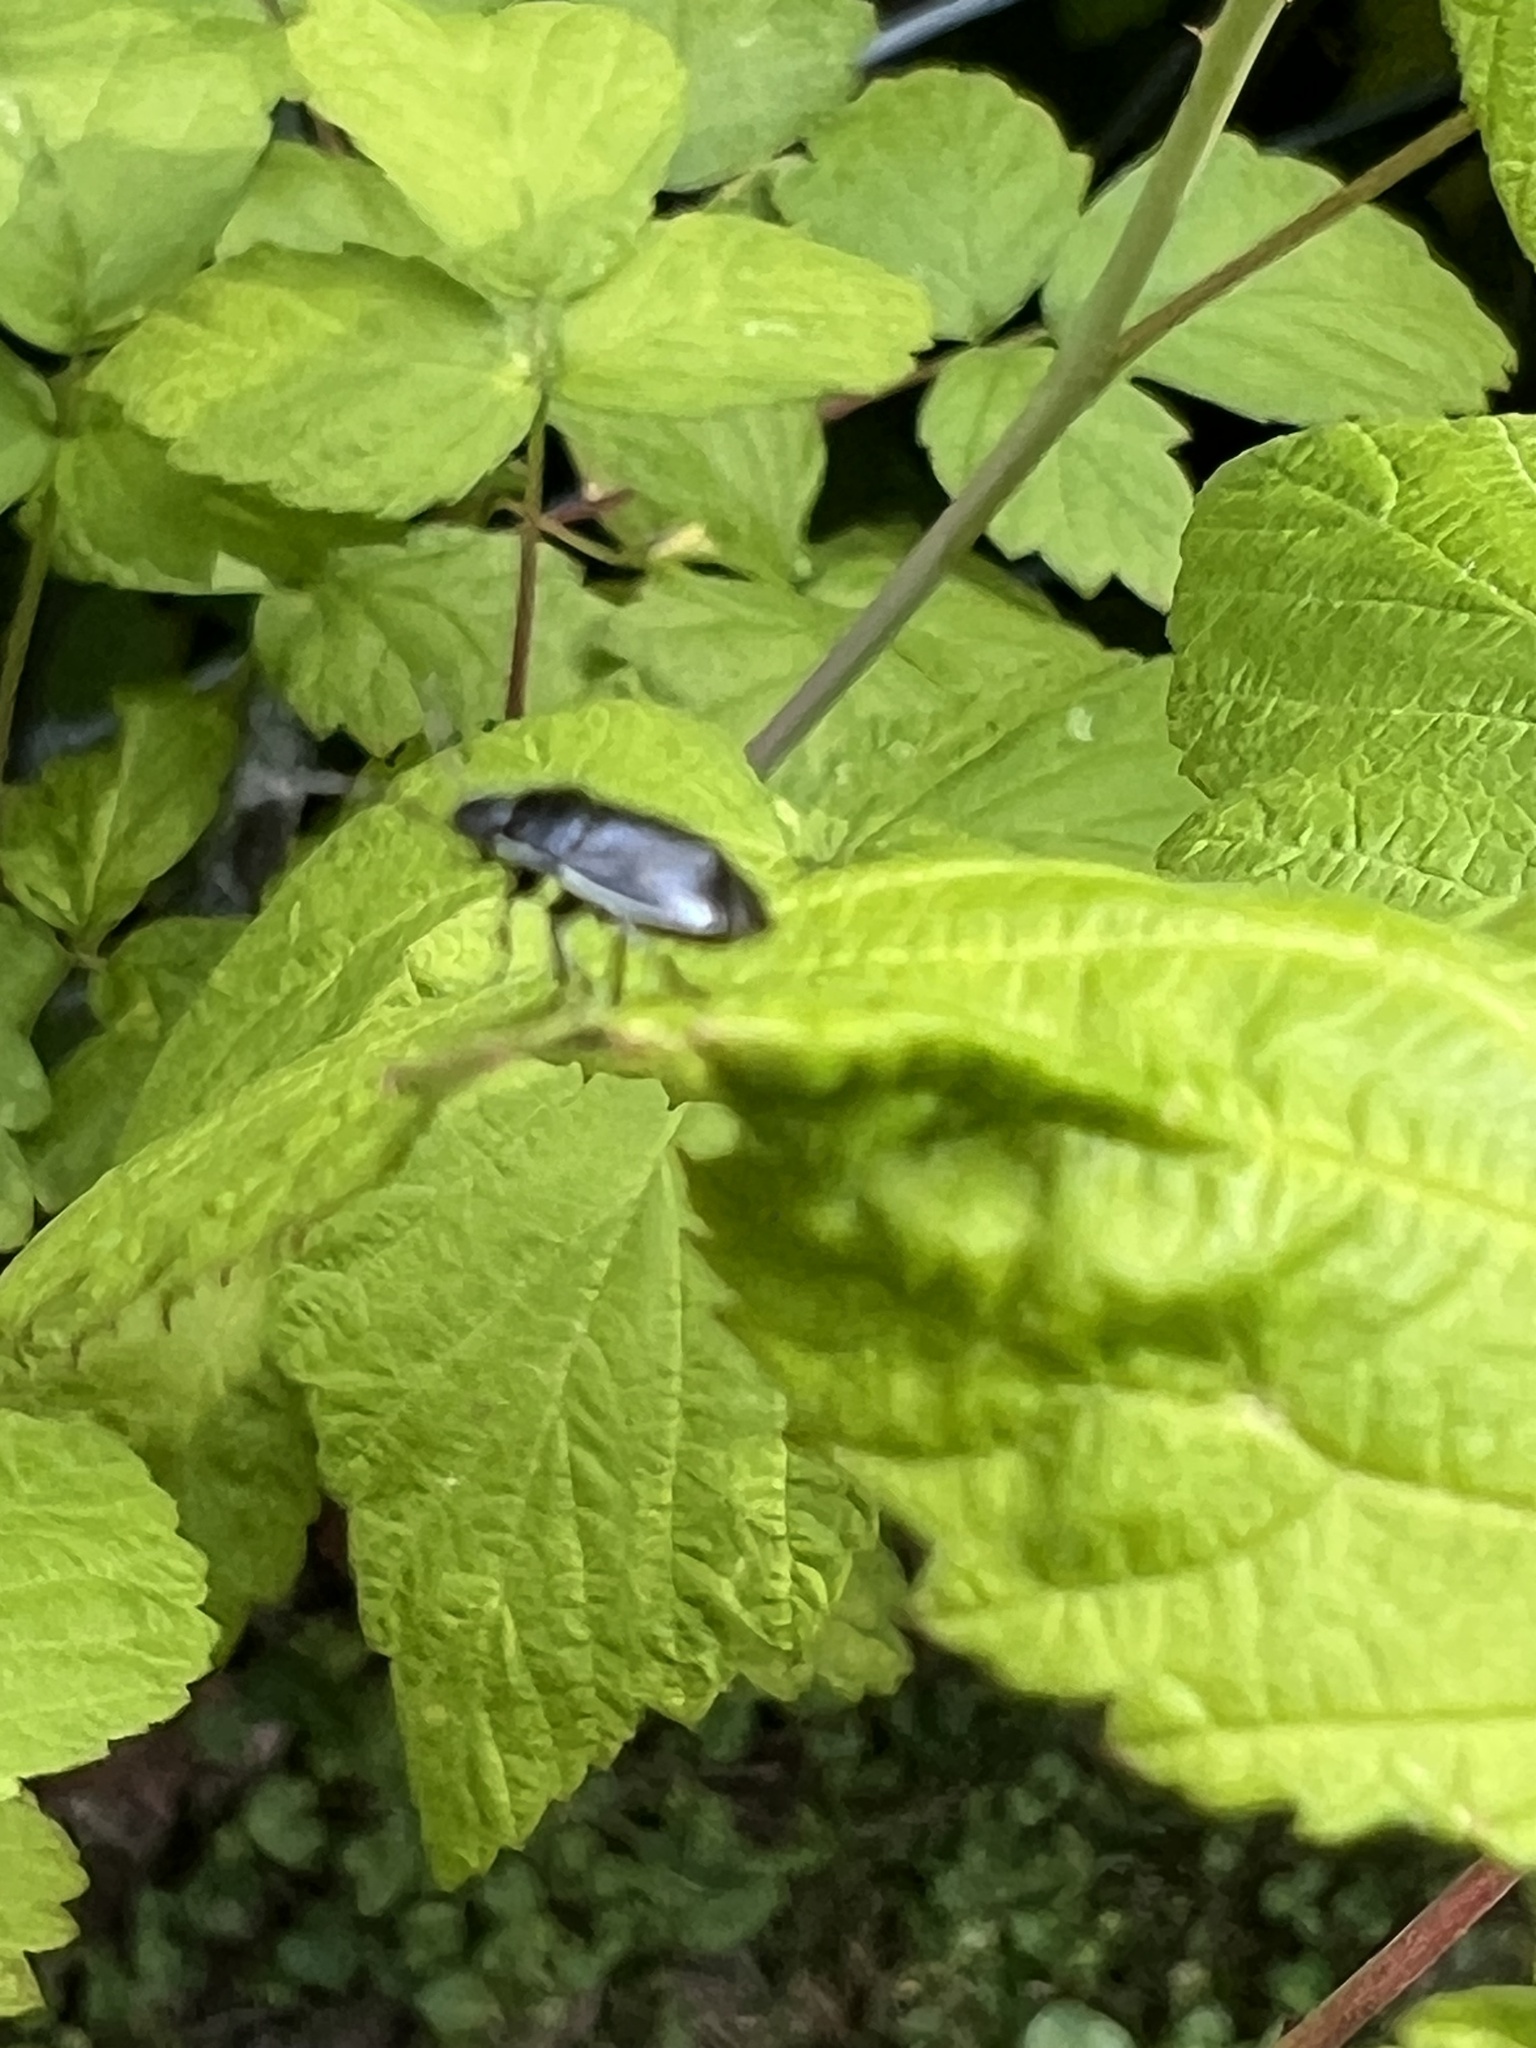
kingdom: Animalia
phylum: Arthropoda
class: Insecta
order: Hemiptera
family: Cydnidae
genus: Sehirus
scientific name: Sehirus cinctus
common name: White-margined burrower bug
